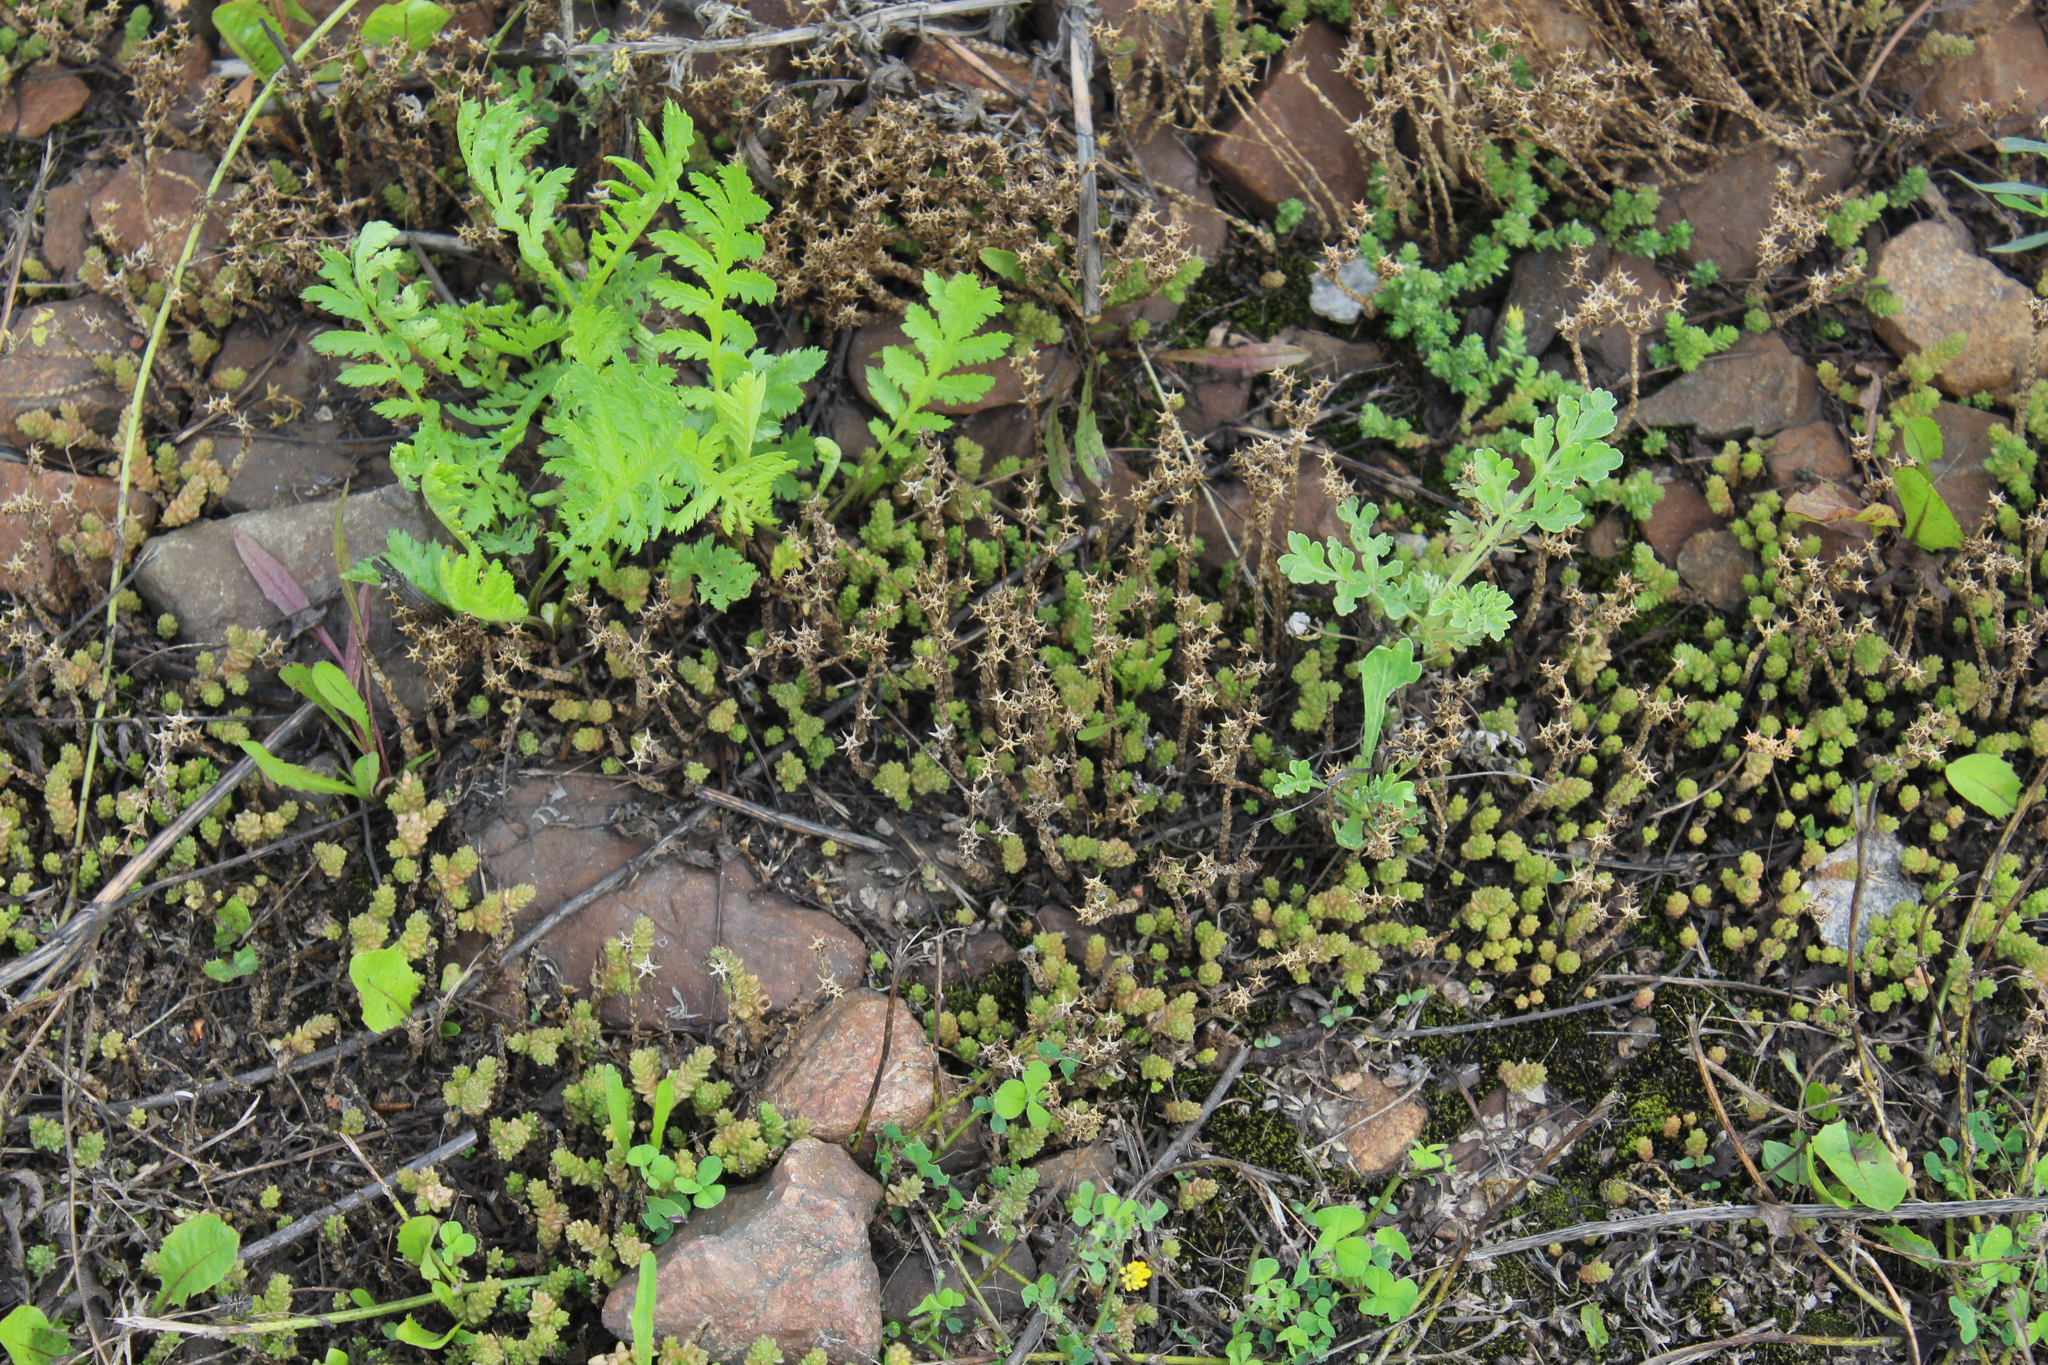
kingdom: Plantae
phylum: Tracheophyta
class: Magnoliopsida
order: Saxifragales
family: Crassulaceae
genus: Sedum
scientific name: Sedum acre
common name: Biting stonecrop
